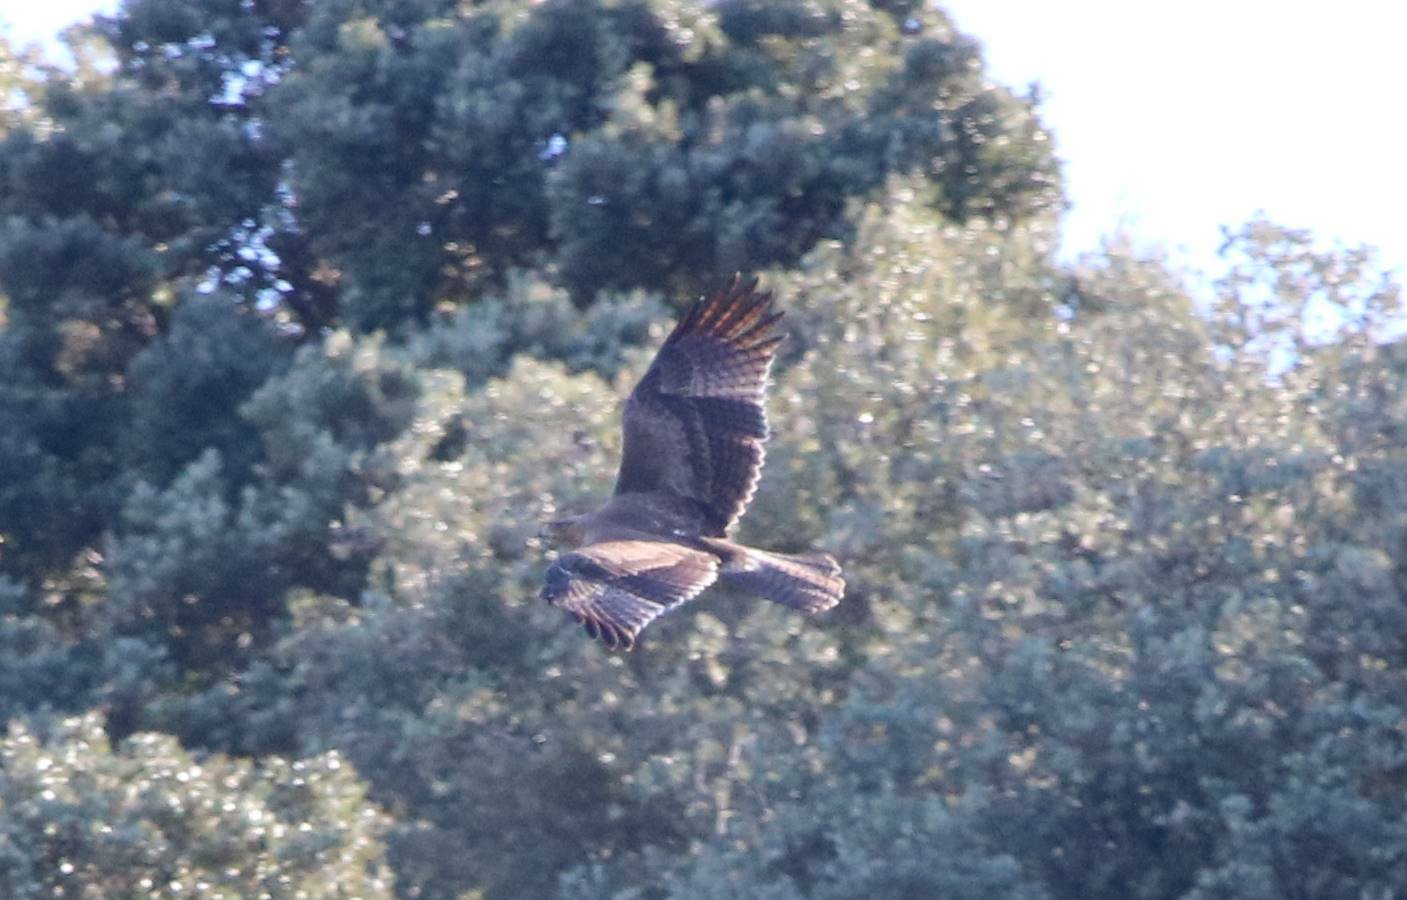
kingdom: Animalia
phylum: Chordata
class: Aves
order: Accipitriformes
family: Accipitridae
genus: Aquila
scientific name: Aquila fasciata
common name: Bonelli's eagle
